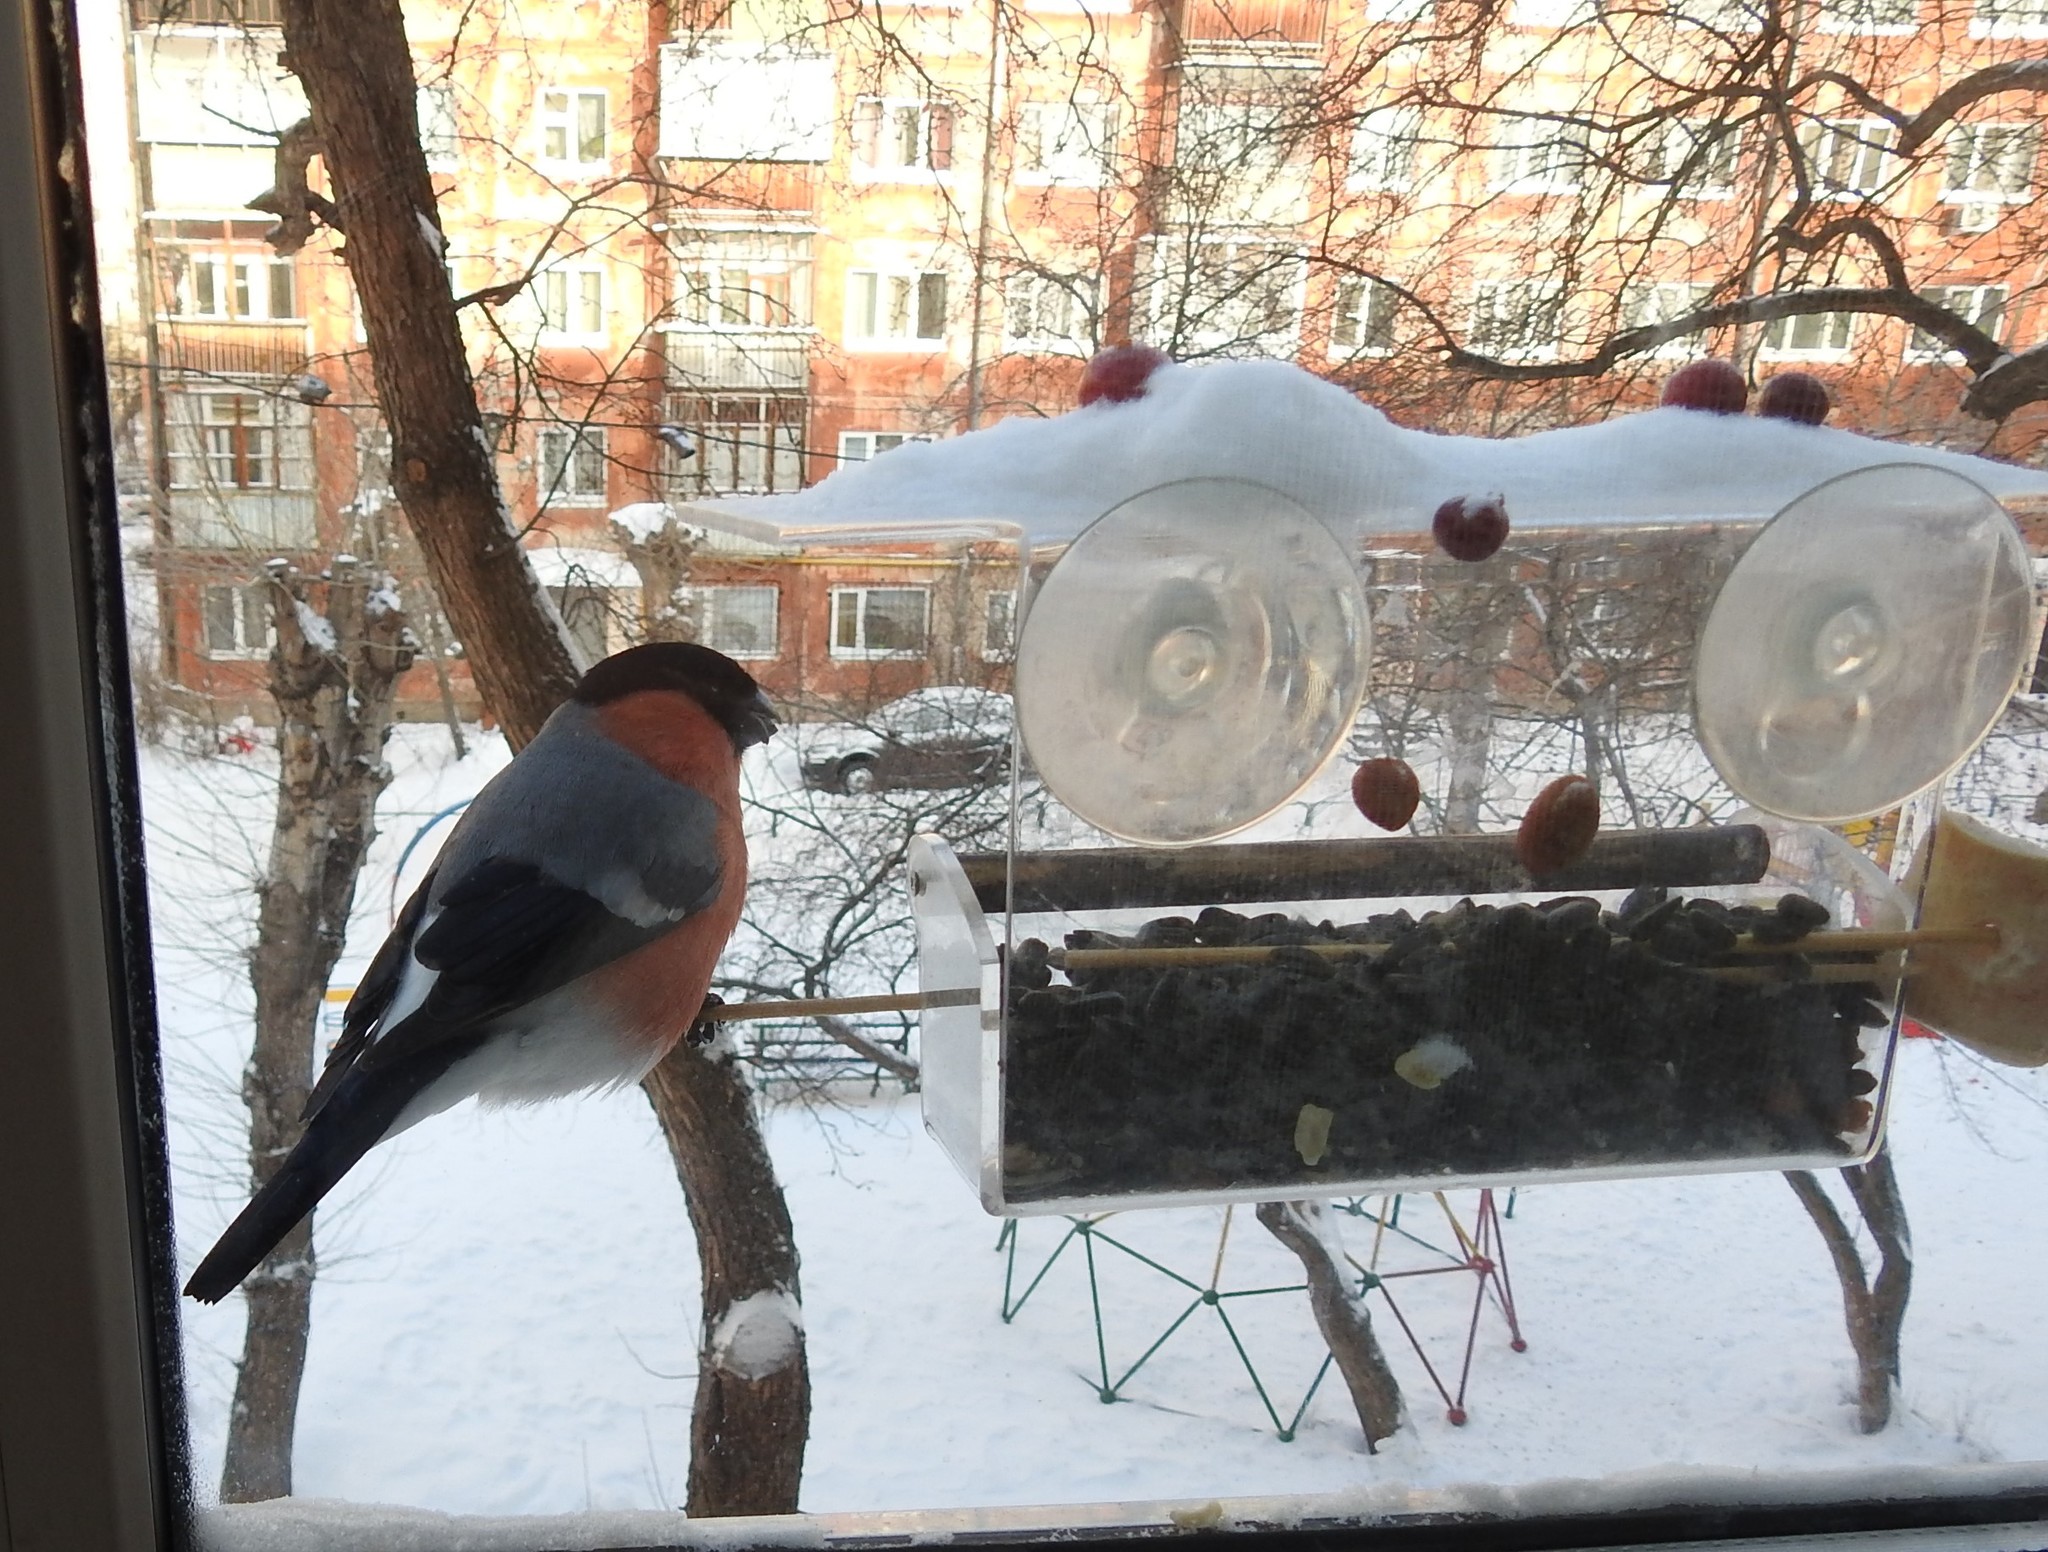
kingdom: Animalia
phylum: Chordata
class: Aves
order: Passeriformes
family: Fringillidae
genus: Pyrrhula
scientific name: Pyrrhula pyrrhula
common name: Eurasian bullfinch
